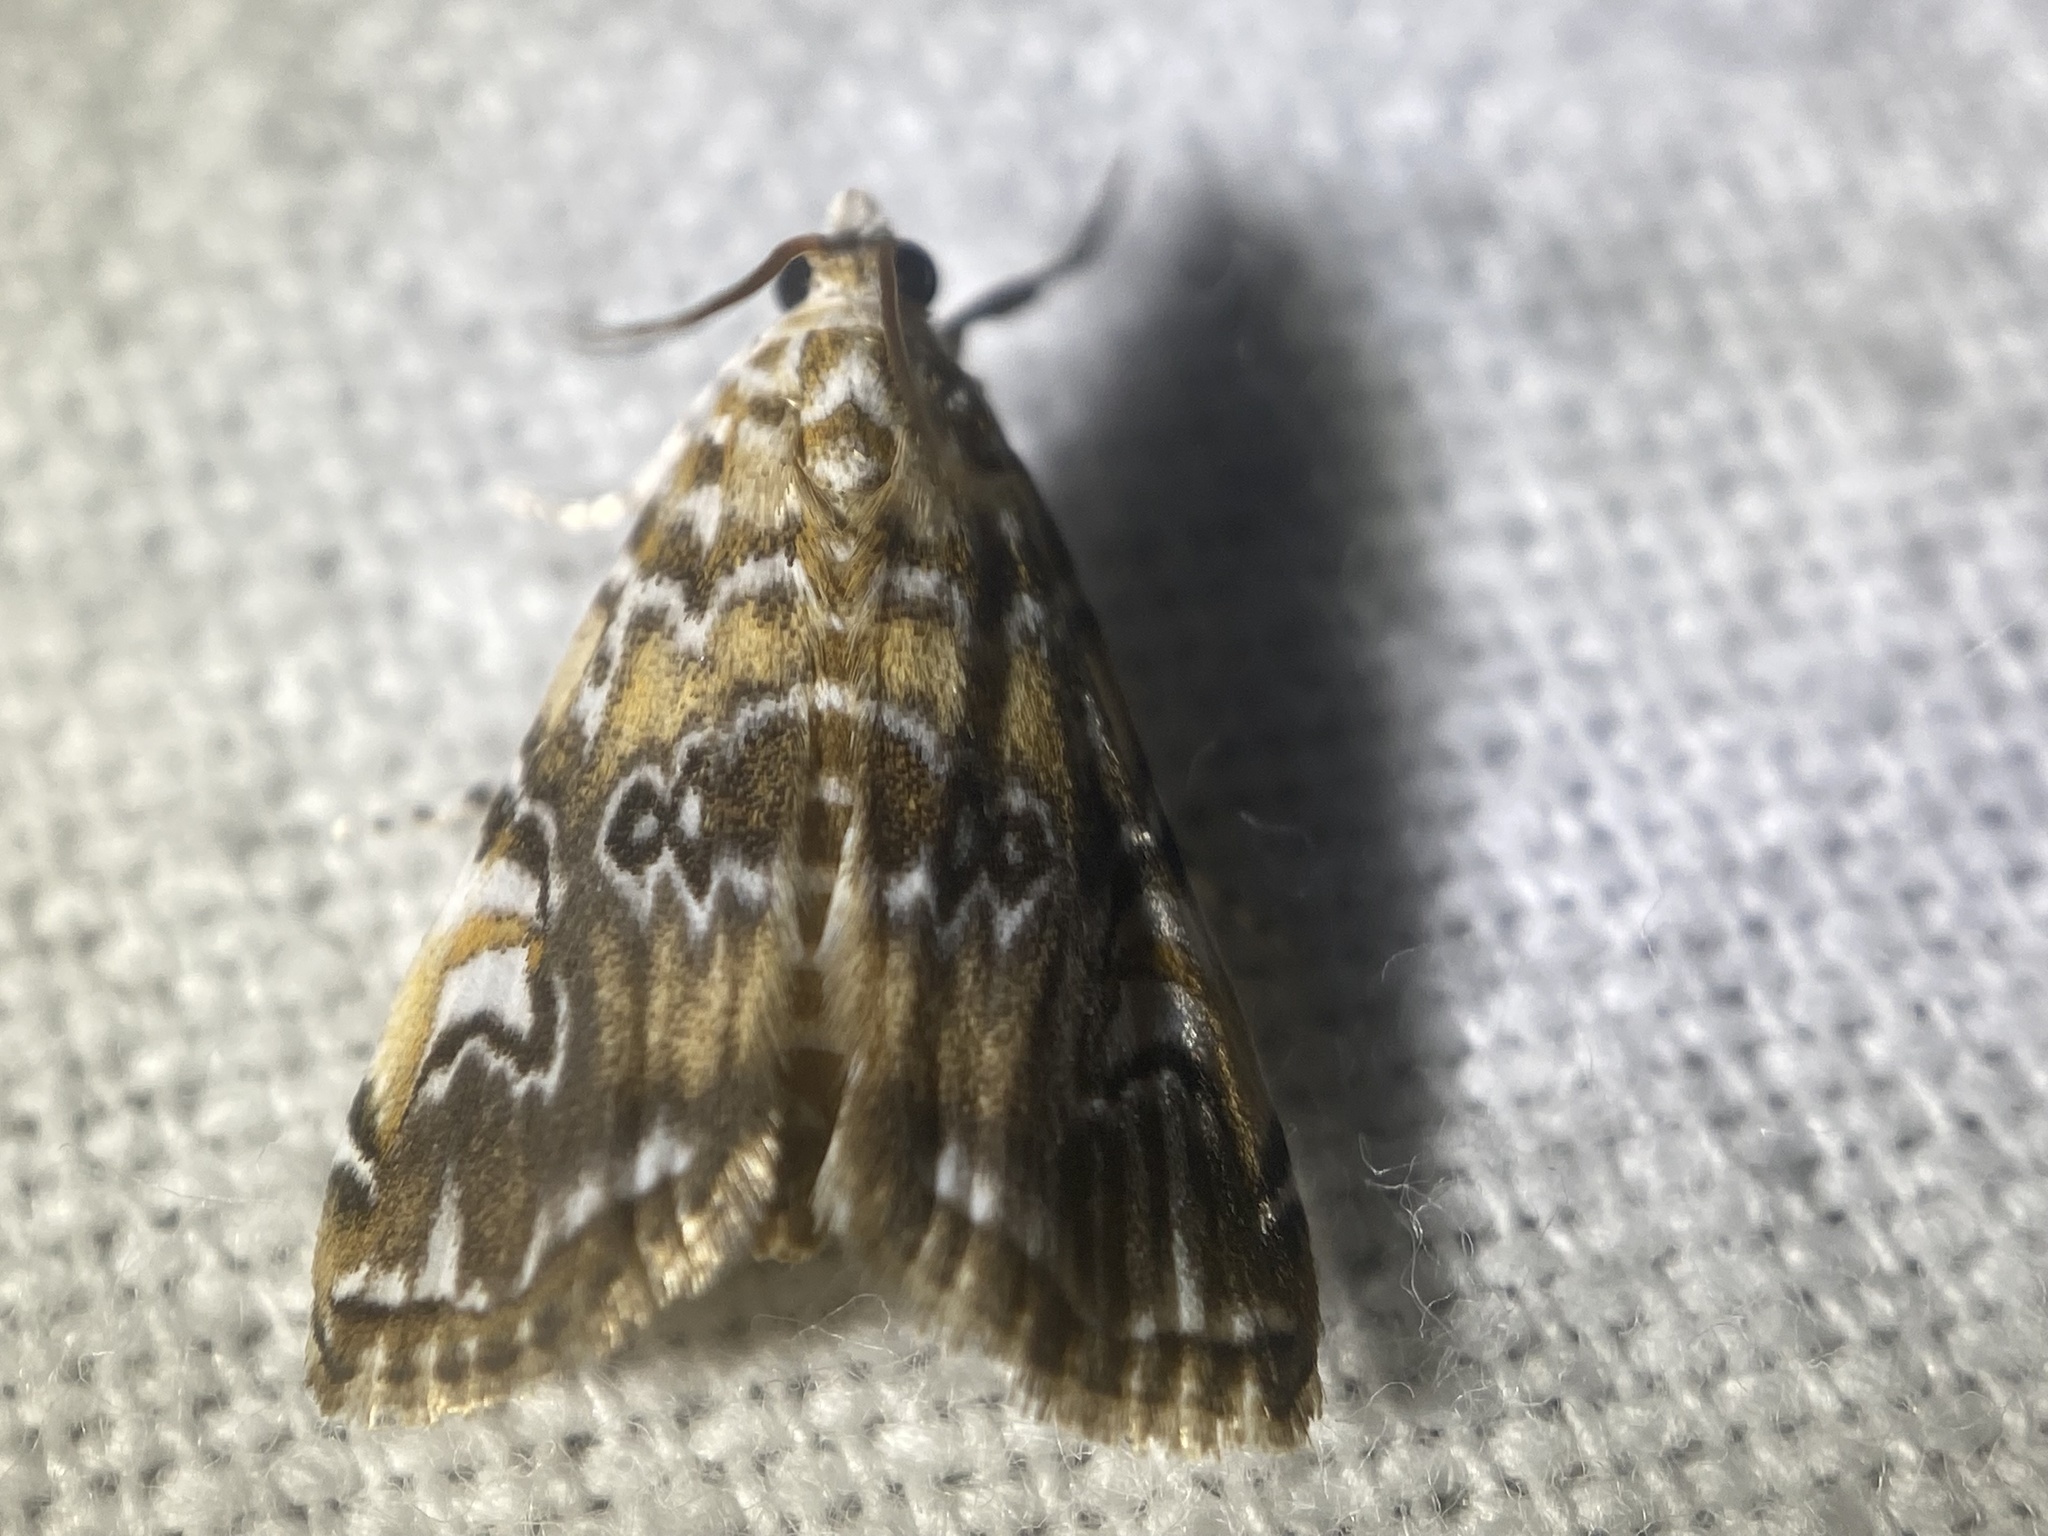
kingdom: Animalia
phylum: Arthropoda
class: Insecta
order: Lepidoptera
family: Crambidae
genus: Elophila
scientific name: Elophila gyralis
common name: Waterlily borer moth
